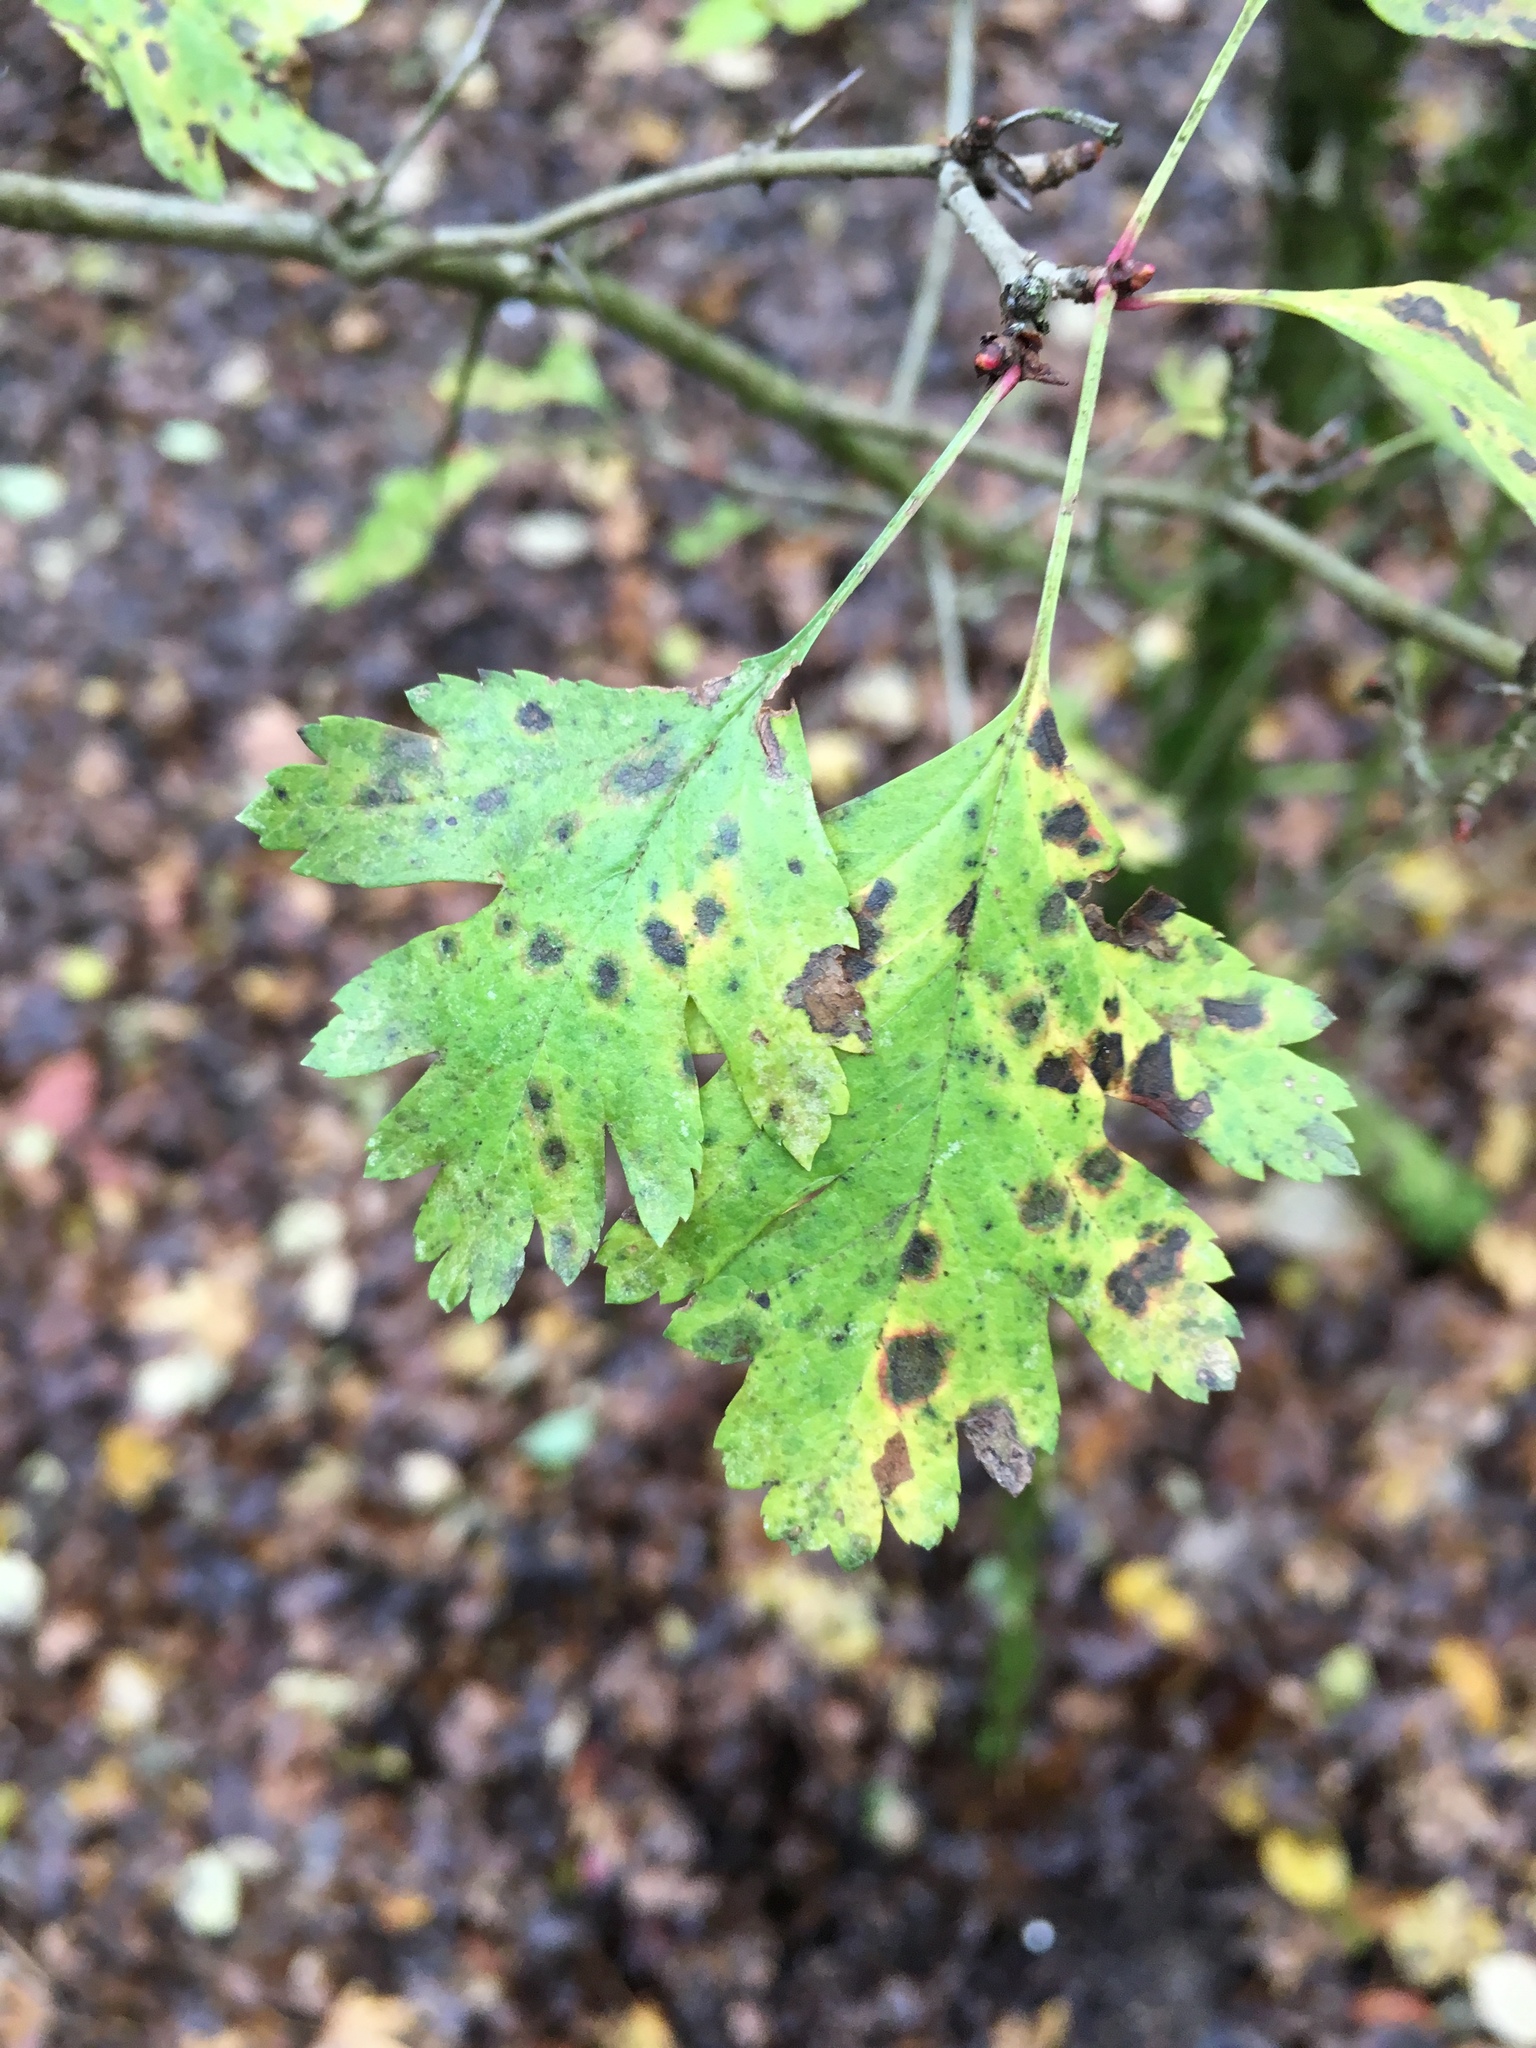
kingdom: Plantae
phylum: Tracheophyta
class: Magnoliopsida
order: Rosales
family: Rosaceae
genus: Crataegus
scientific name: Crataegus monogyna
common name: Hawthorn
